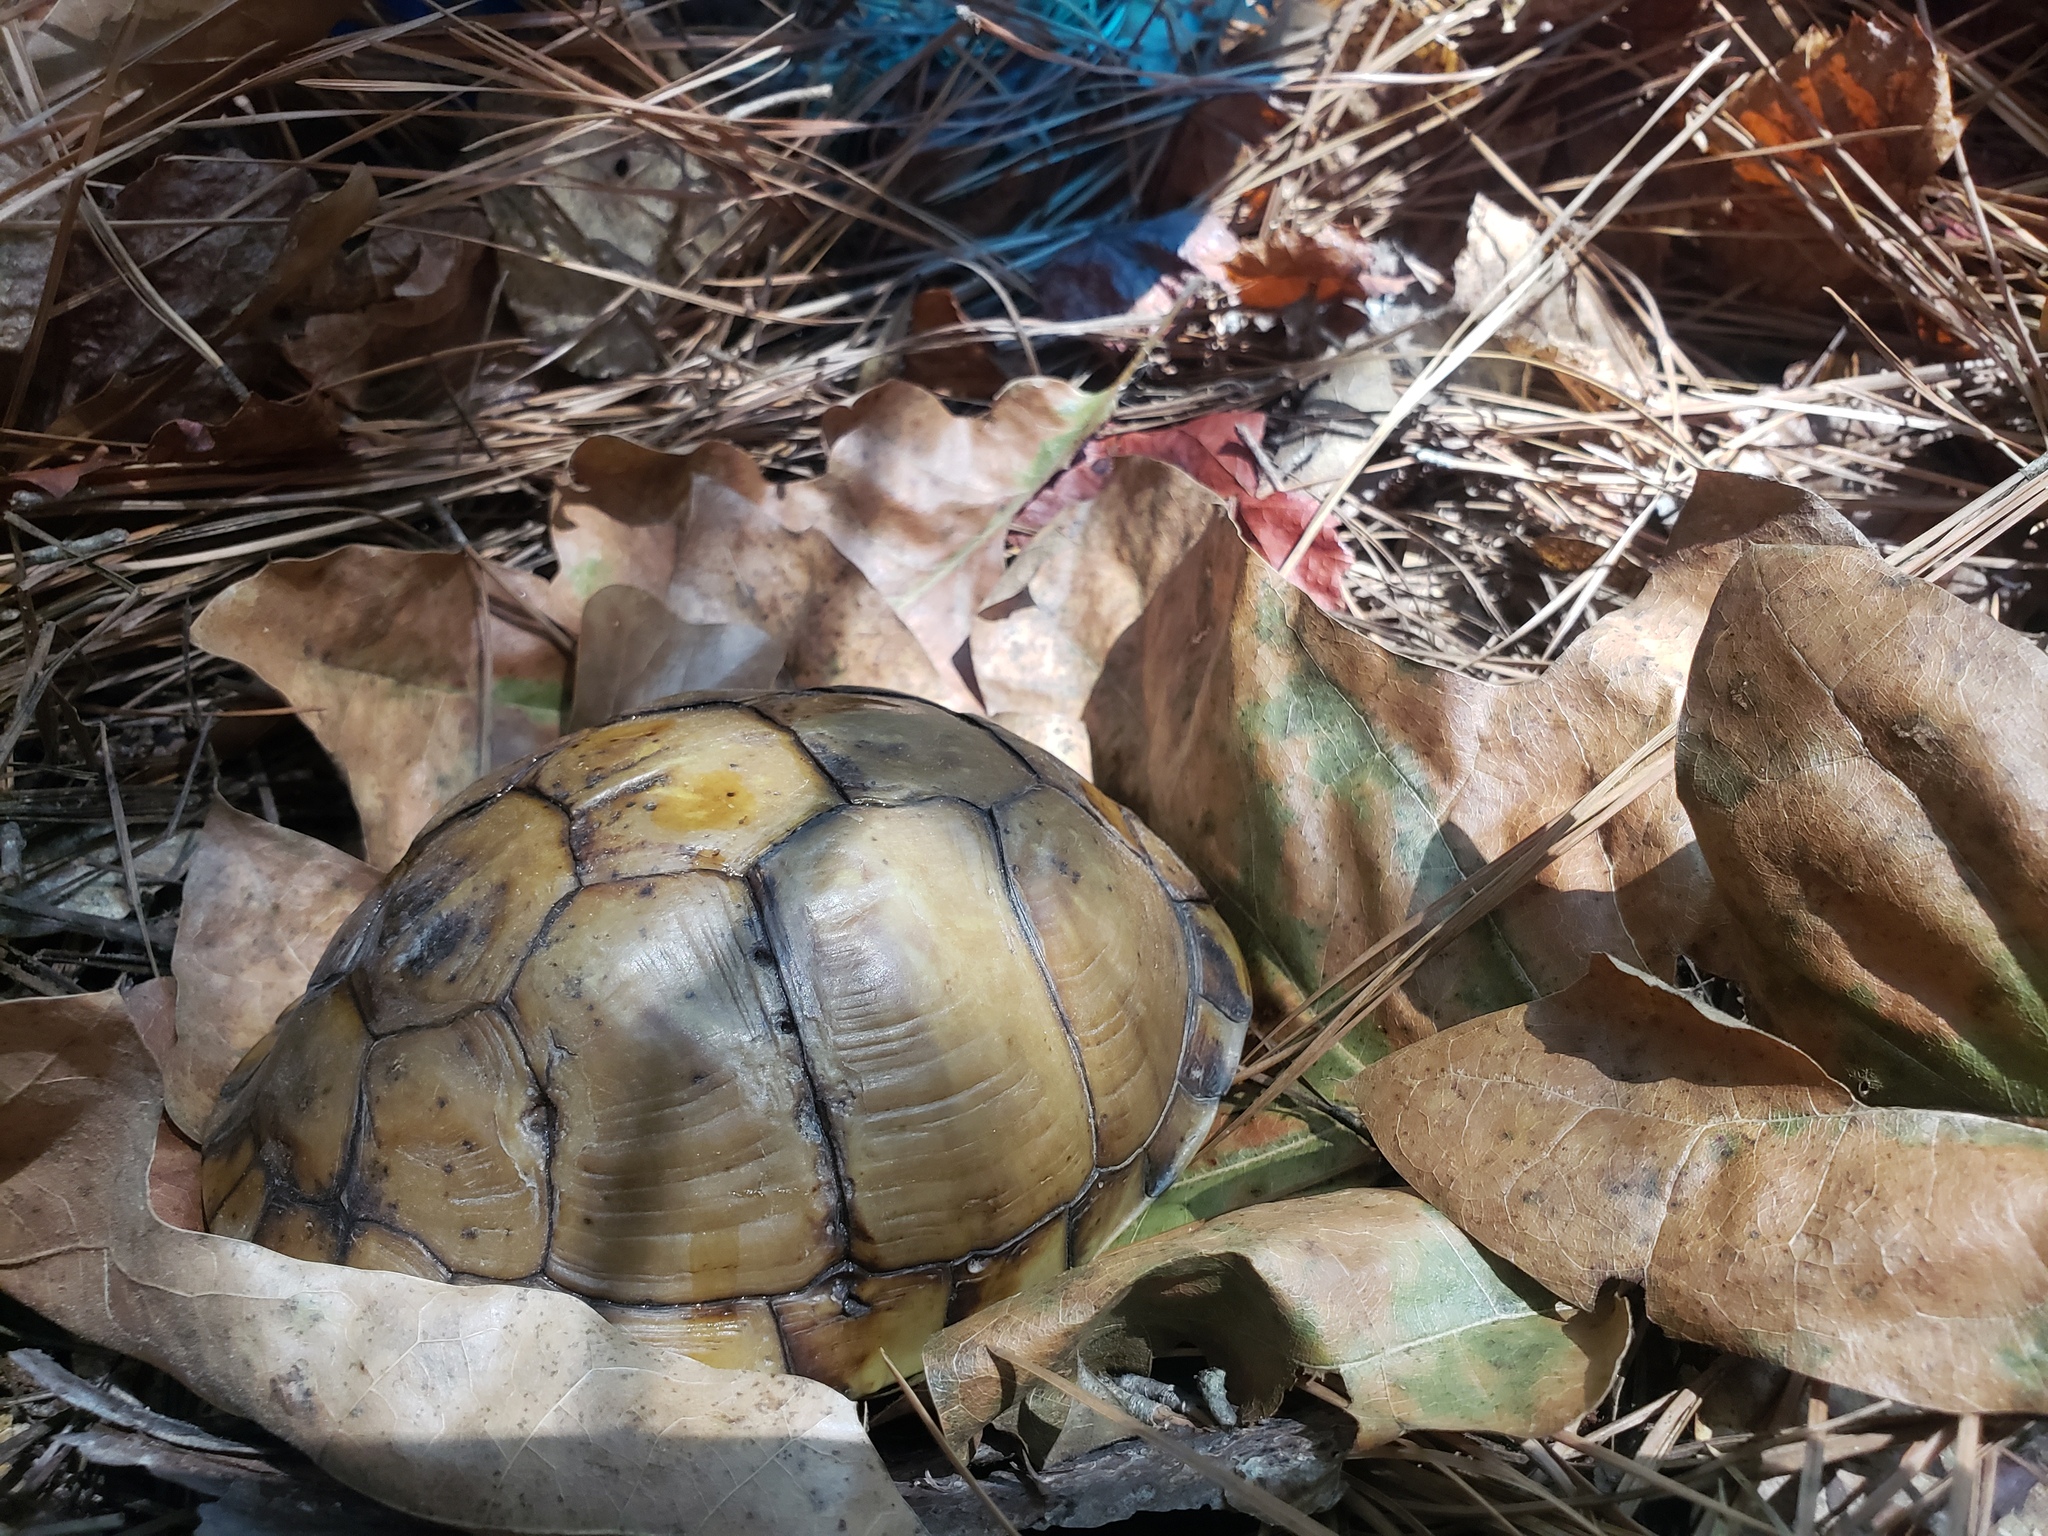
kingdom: Animalia
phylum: Chordata
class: Testudines
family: Emydidae
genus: Terrapene
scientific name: Terrapene carolina
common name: Common box turtle
